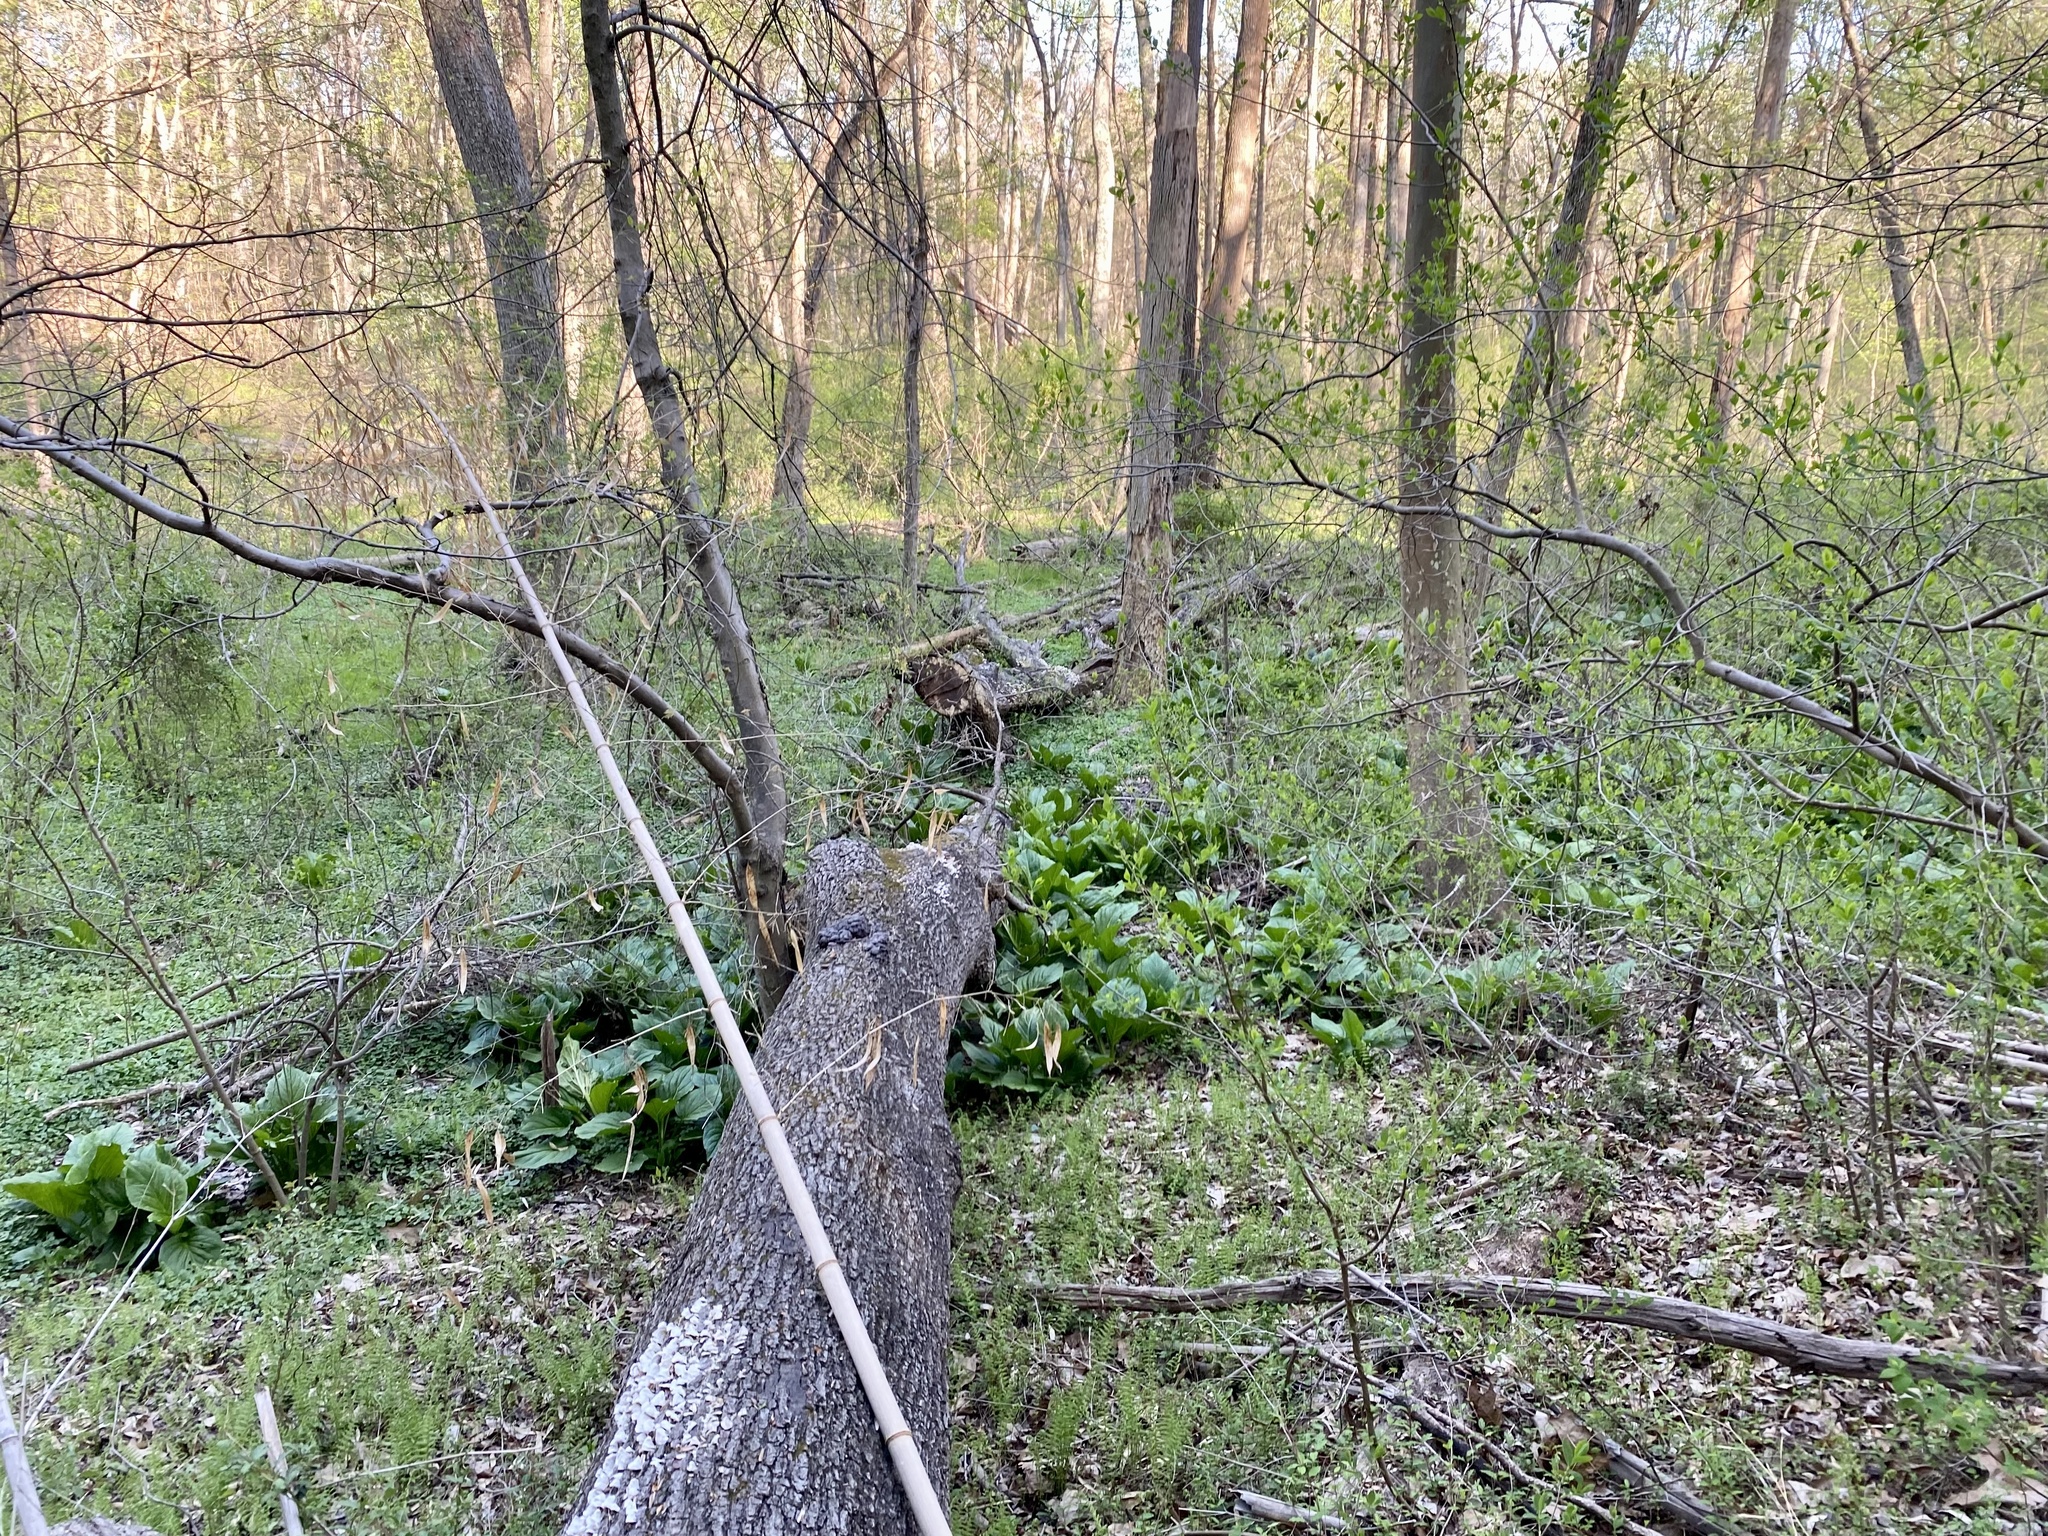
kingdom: Plantae
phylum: Tracheophyta
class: Liliopsida
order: Alismatales
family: Araceae
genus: Symplocarpus
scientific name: Symplocarpus foetidus
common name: Eastern skunk cabbage
